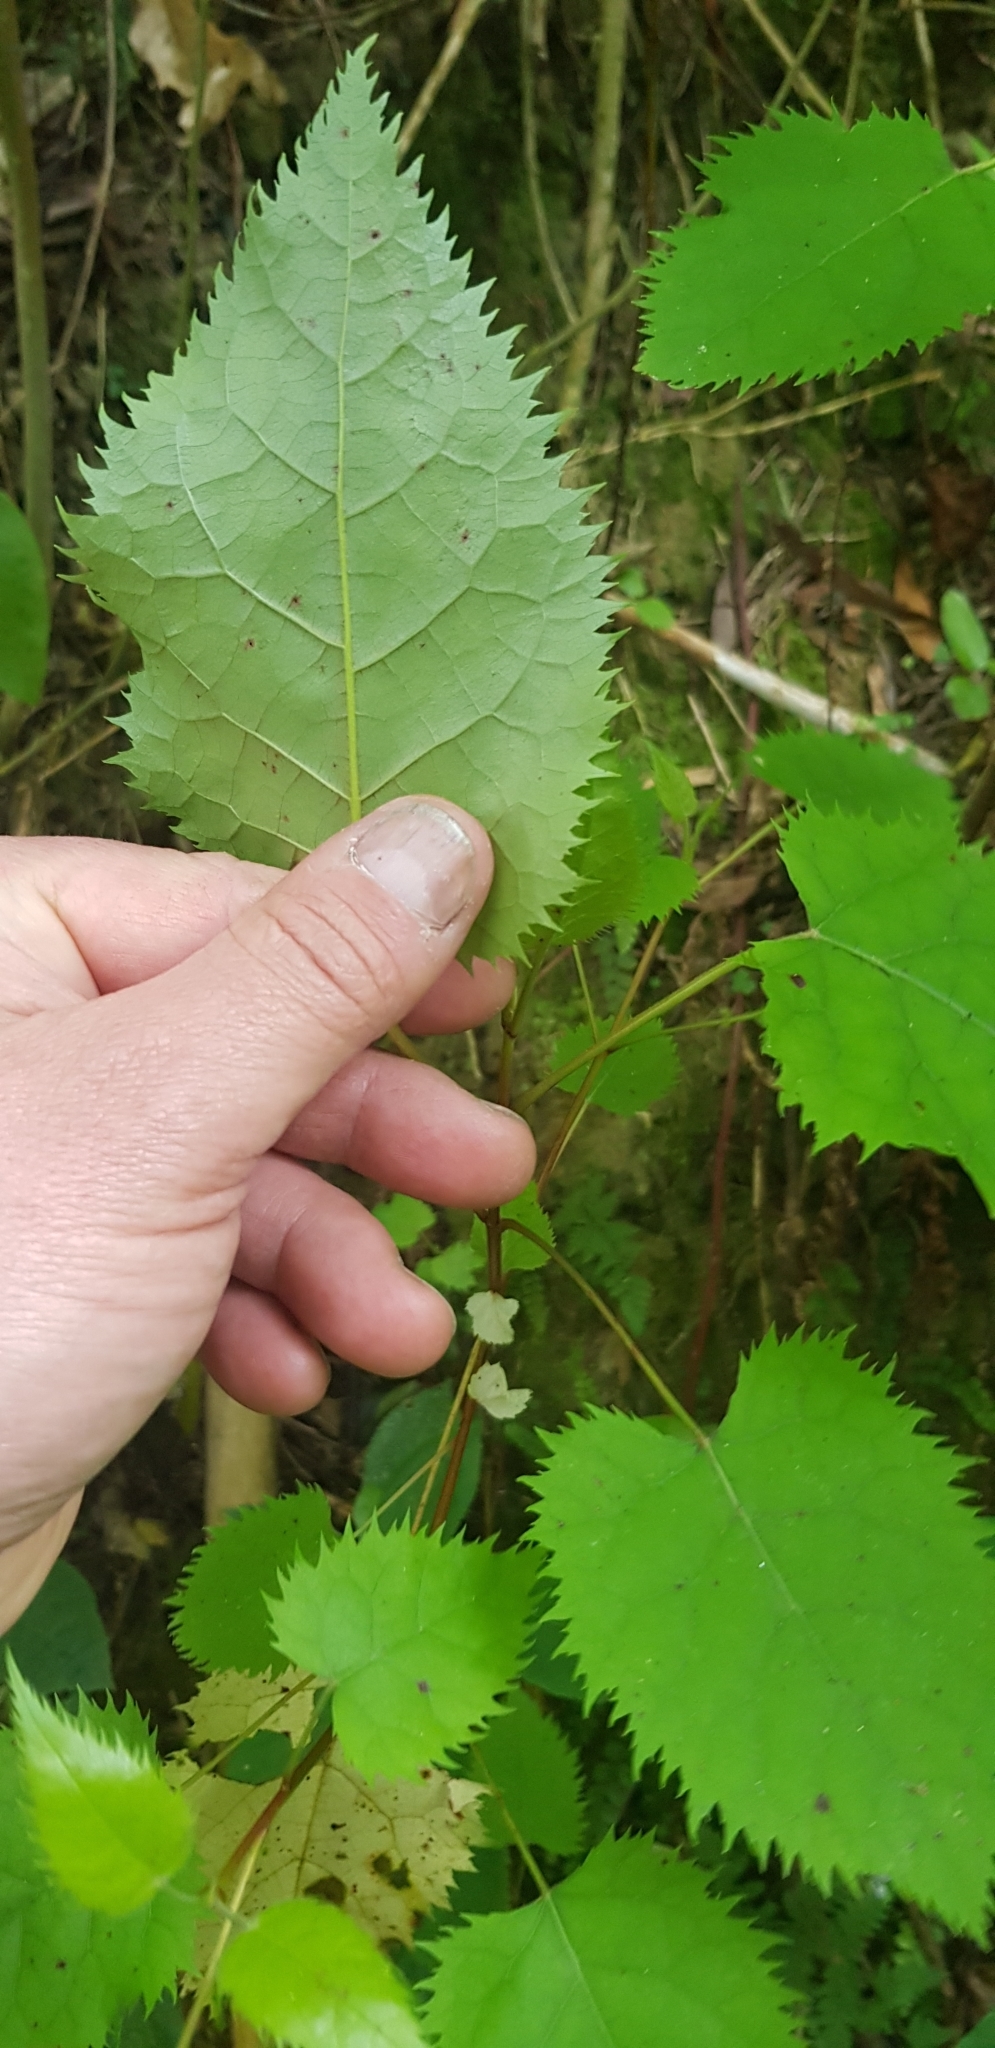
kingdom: Plantae
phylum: Tracheophyta
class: Magnoliopsida
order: Oxalidales
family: Elaeocarpaceae
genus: Aristotelia
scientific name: Aristotelia serrata
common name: New zealand wineberry
